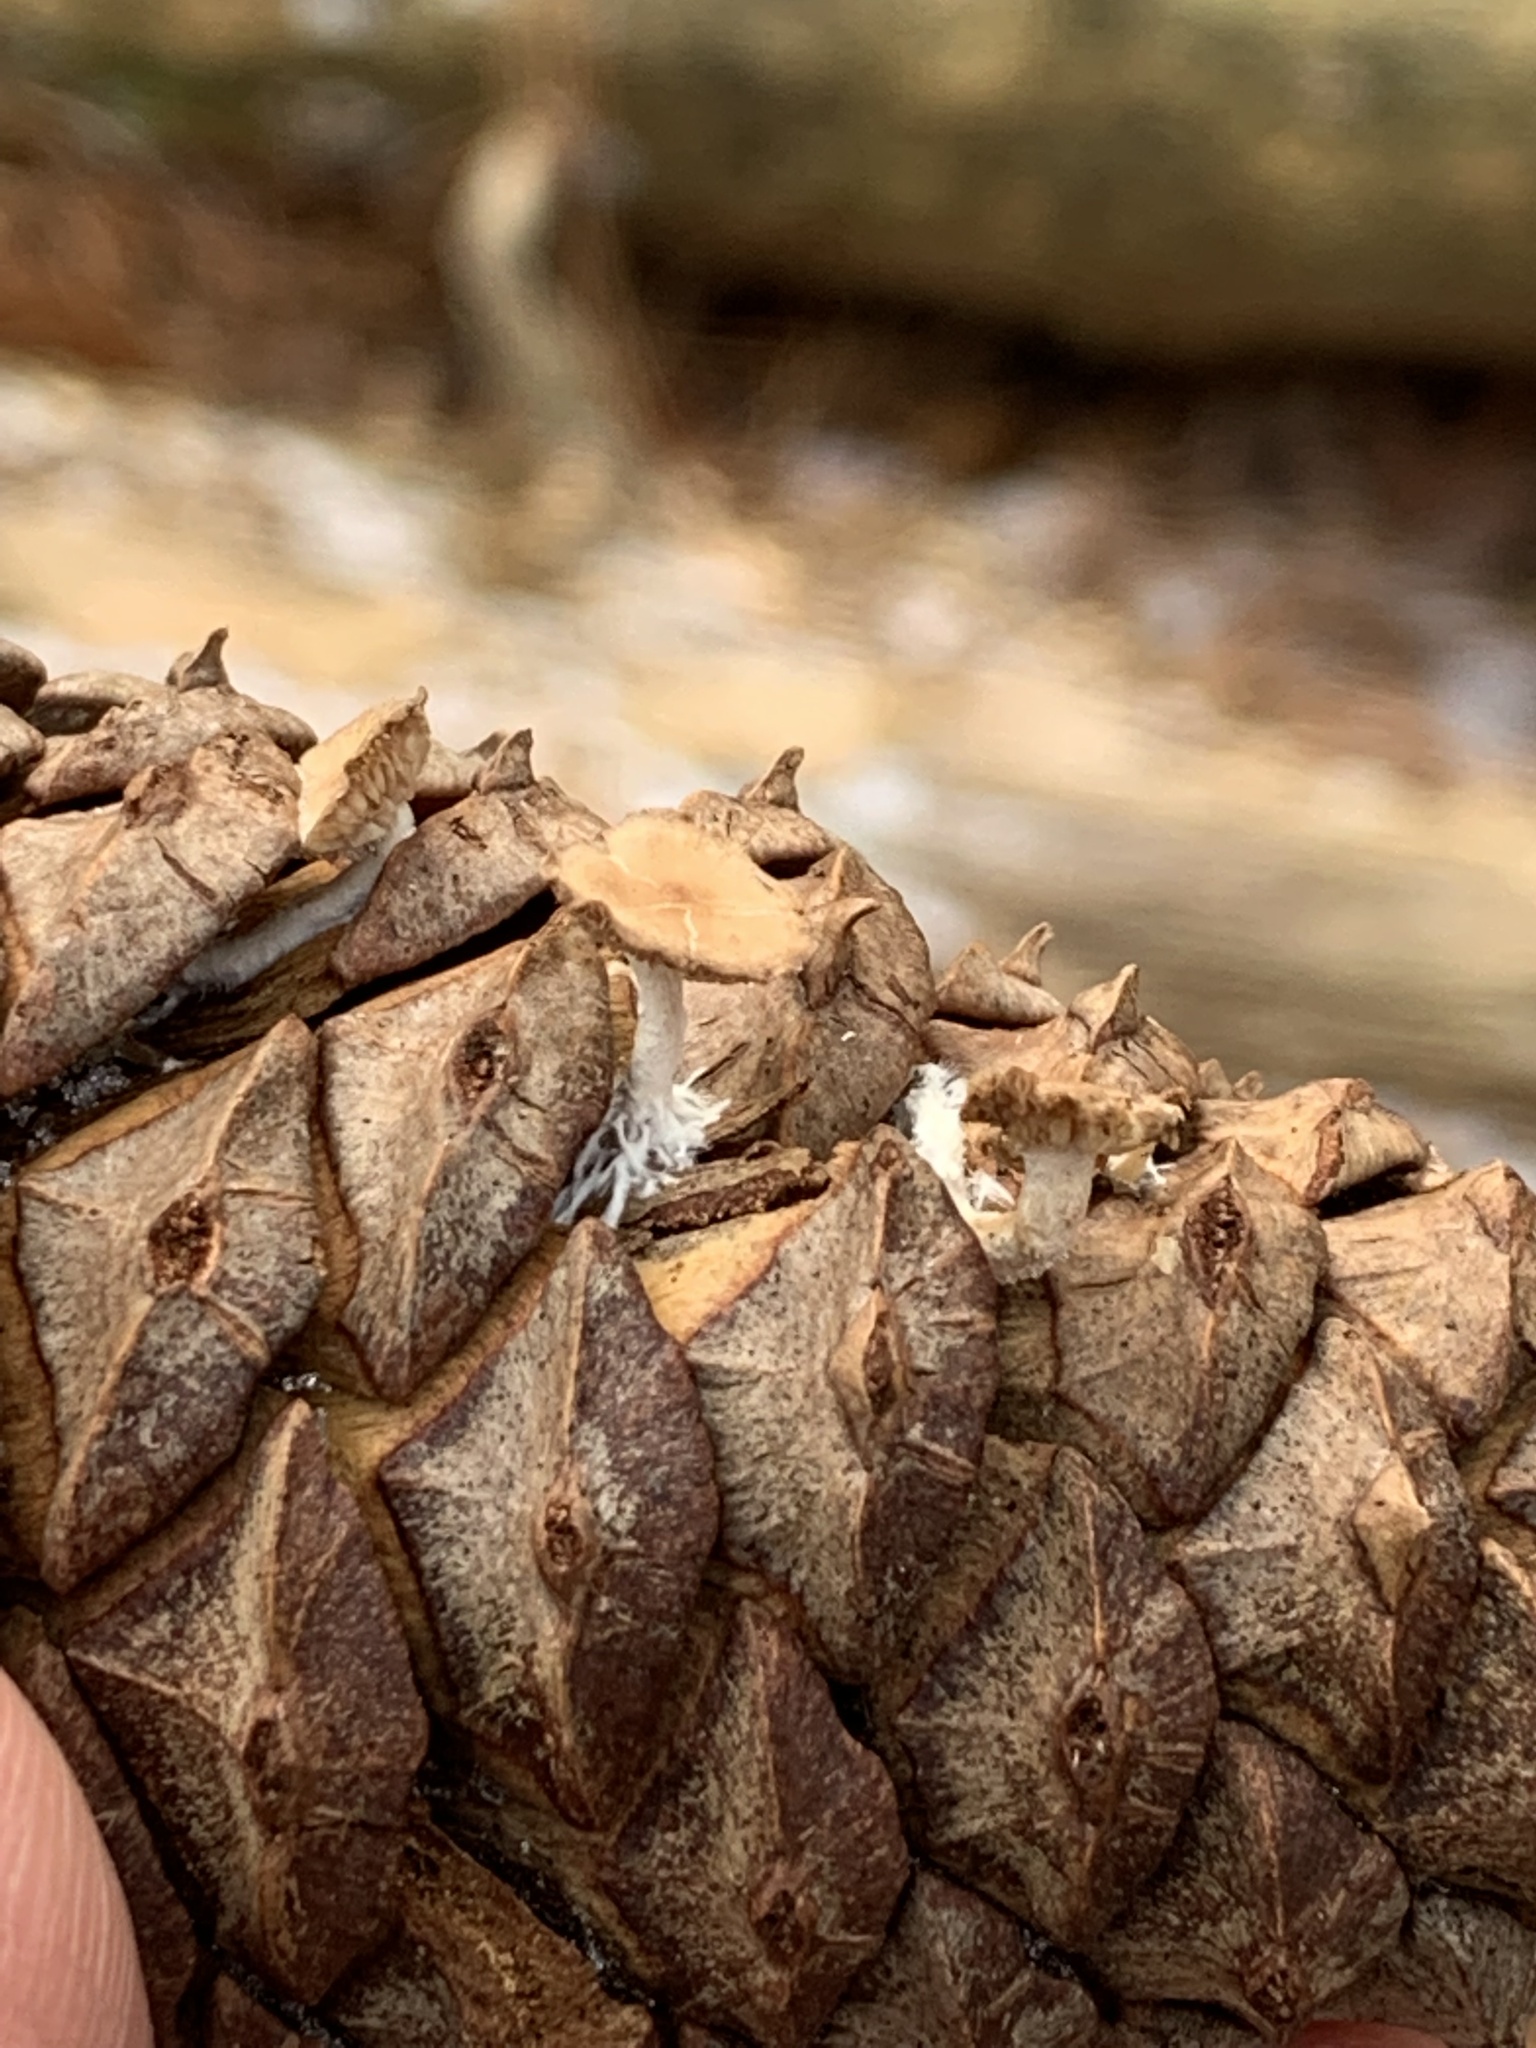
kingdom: Fungi
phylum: Basidiomycota
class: Agaricomycetes
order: Agaricales
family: Marasmiaceae
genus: Baeospora
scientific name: Baeospora myosura
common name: Conifercone cap
